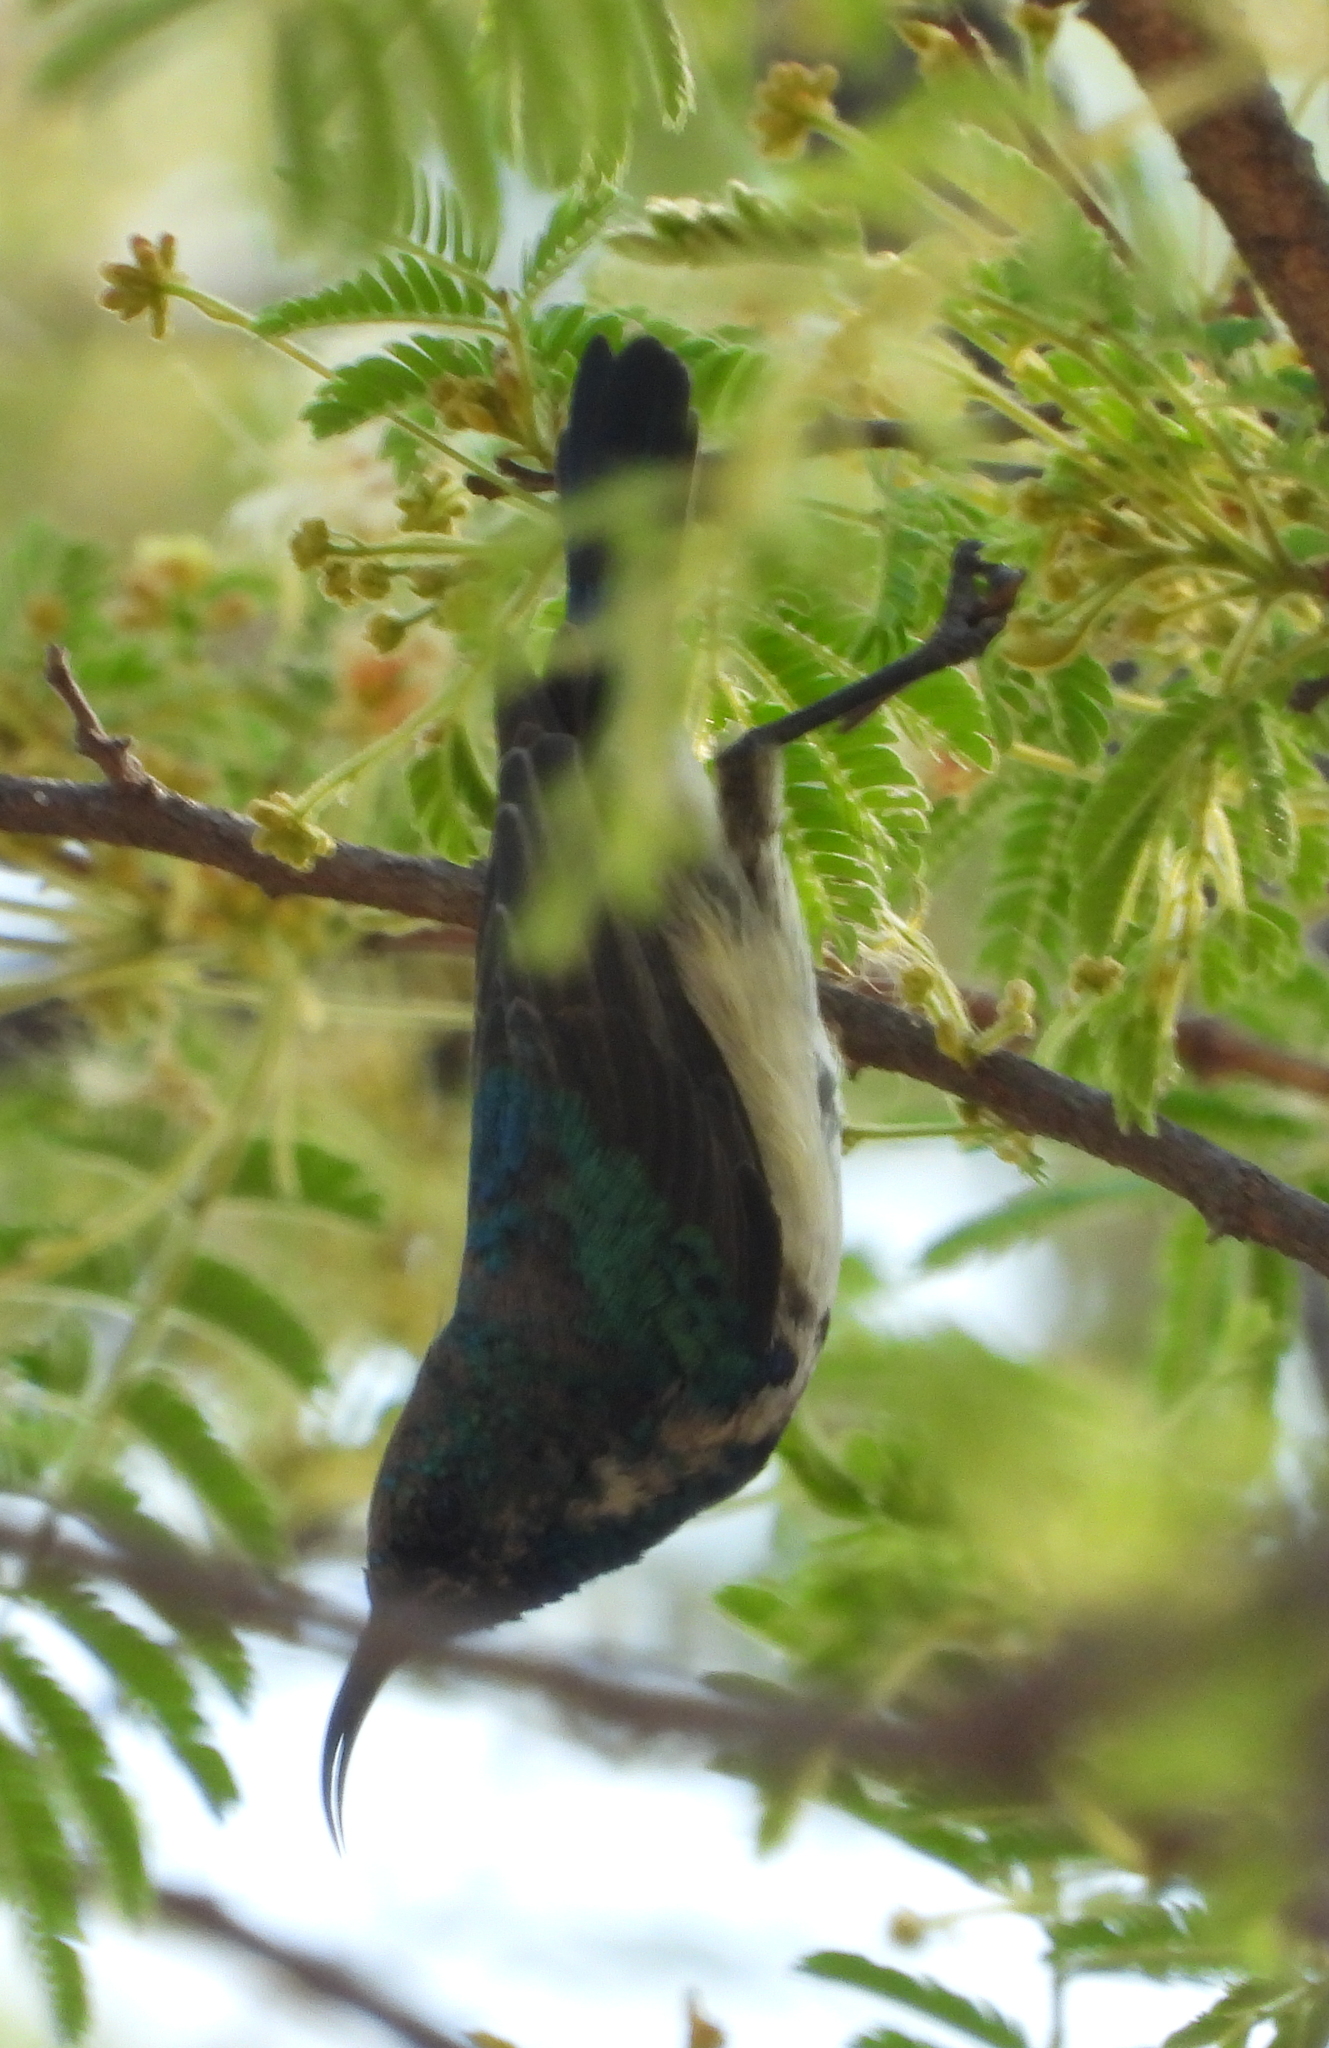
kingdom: Animalia
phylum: Chordata
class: Aves
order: Passeriformes
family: Nectariniidae
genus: Cinnyris
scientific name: Cinnyris talatala
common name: White-bellied sunbird
